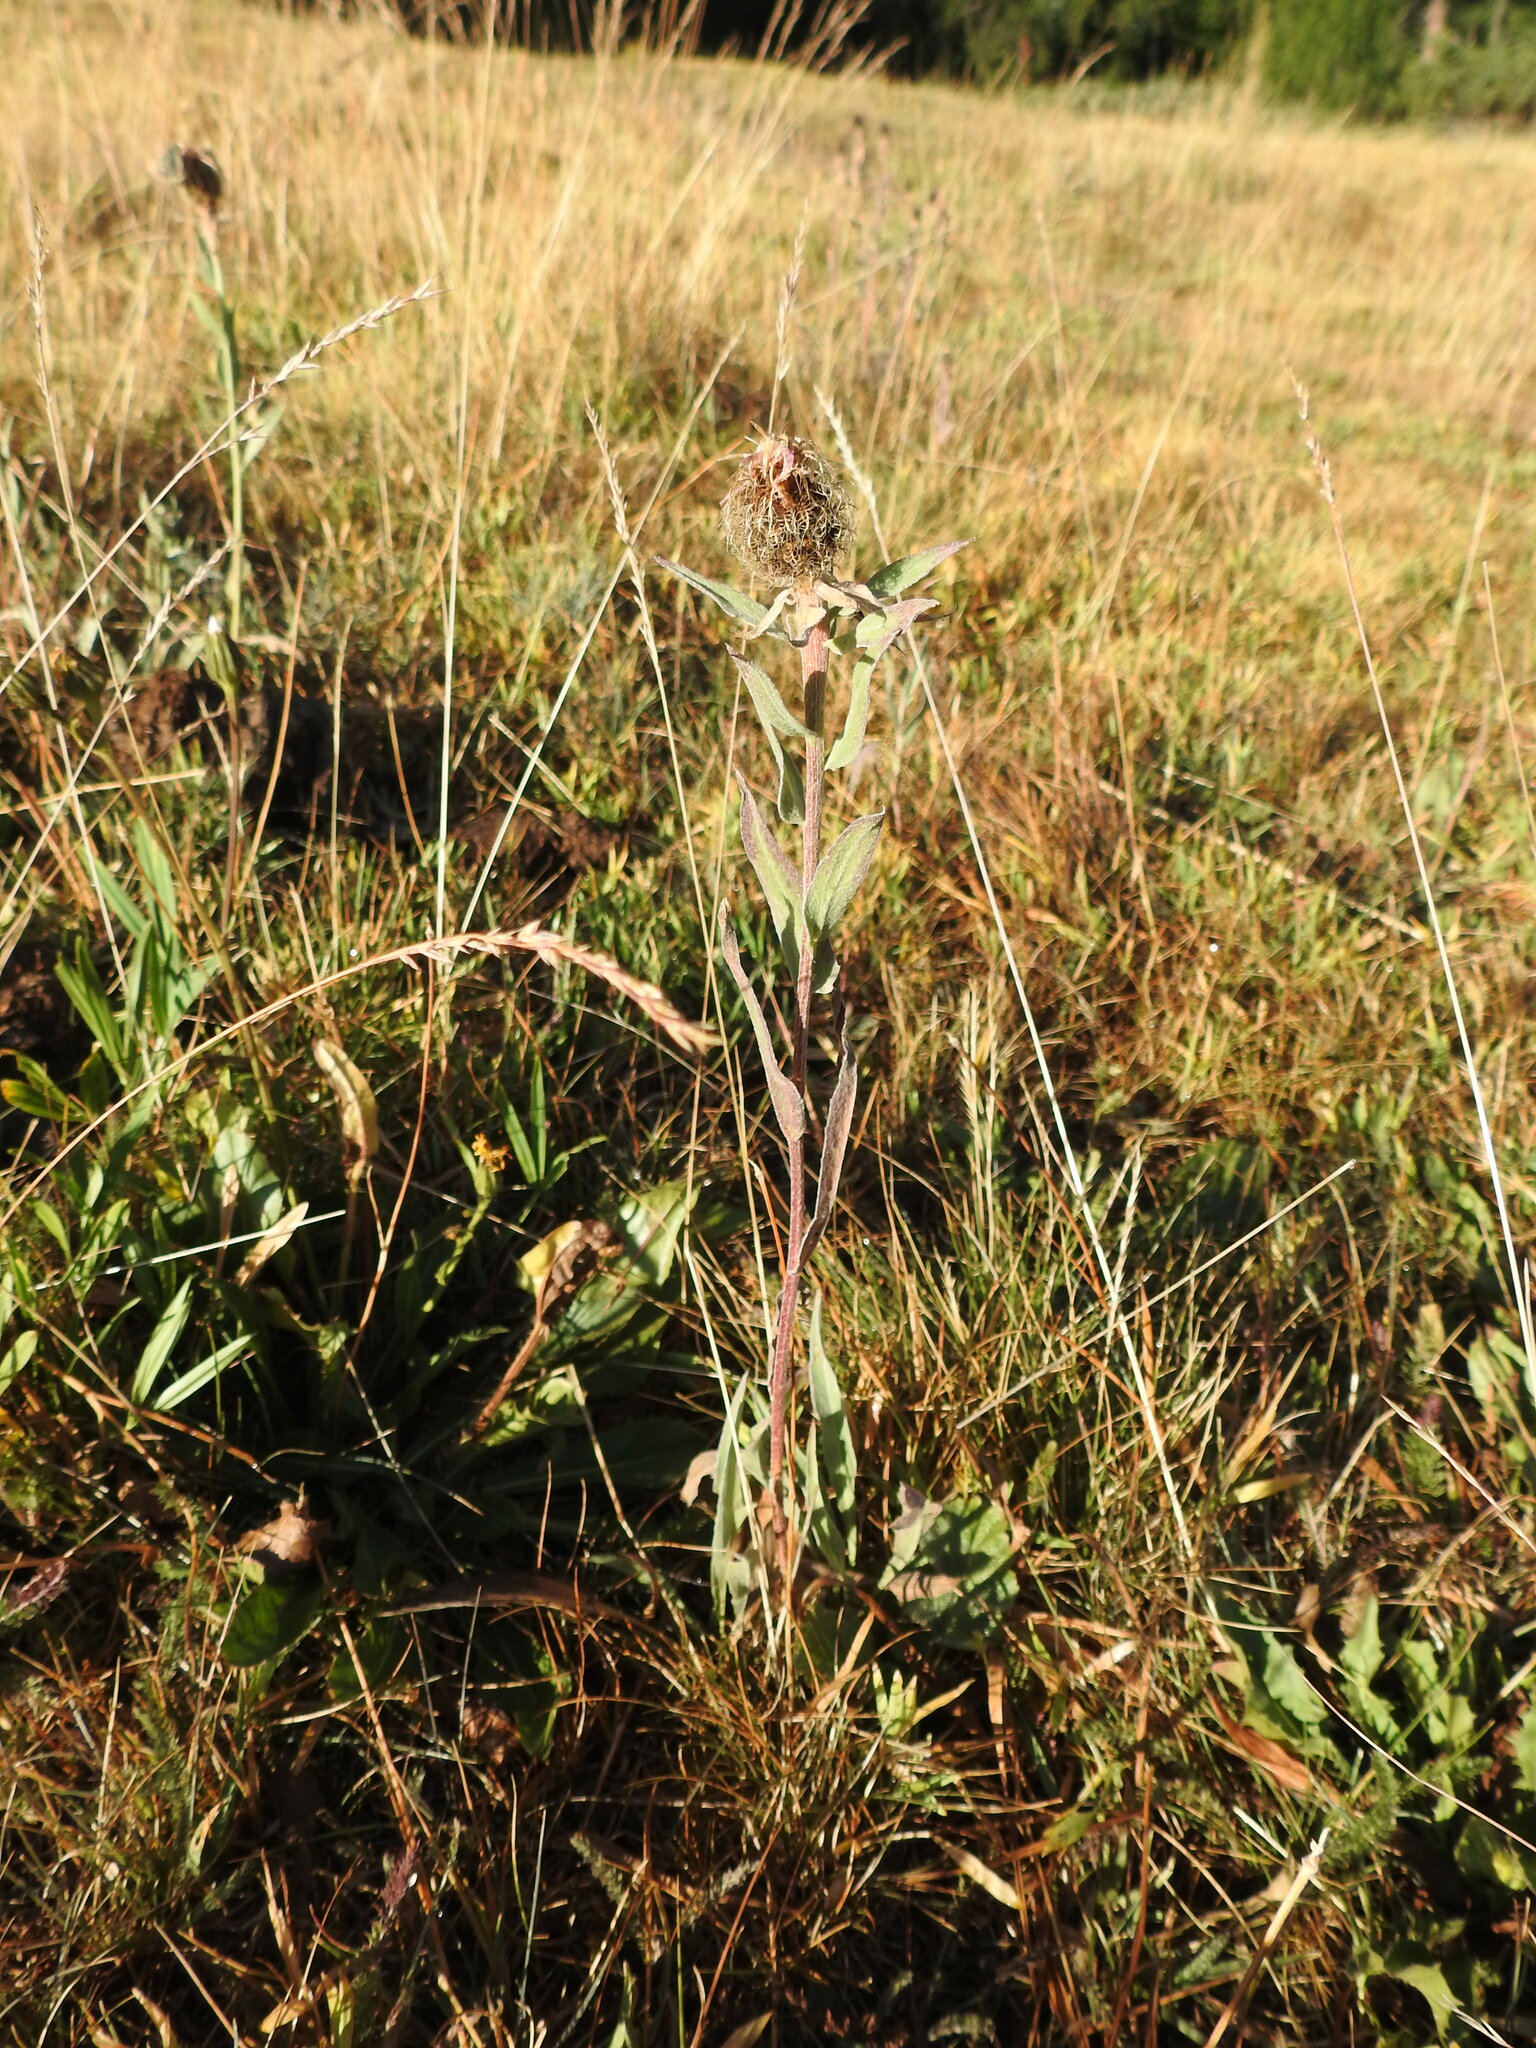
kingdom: Plantae
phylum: Tracheophyta
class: Magnoliopsida
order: Asterales
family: Asteraceae
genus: Centaurea
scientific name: Centaurea uniflora
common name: Singleflower knapweed
